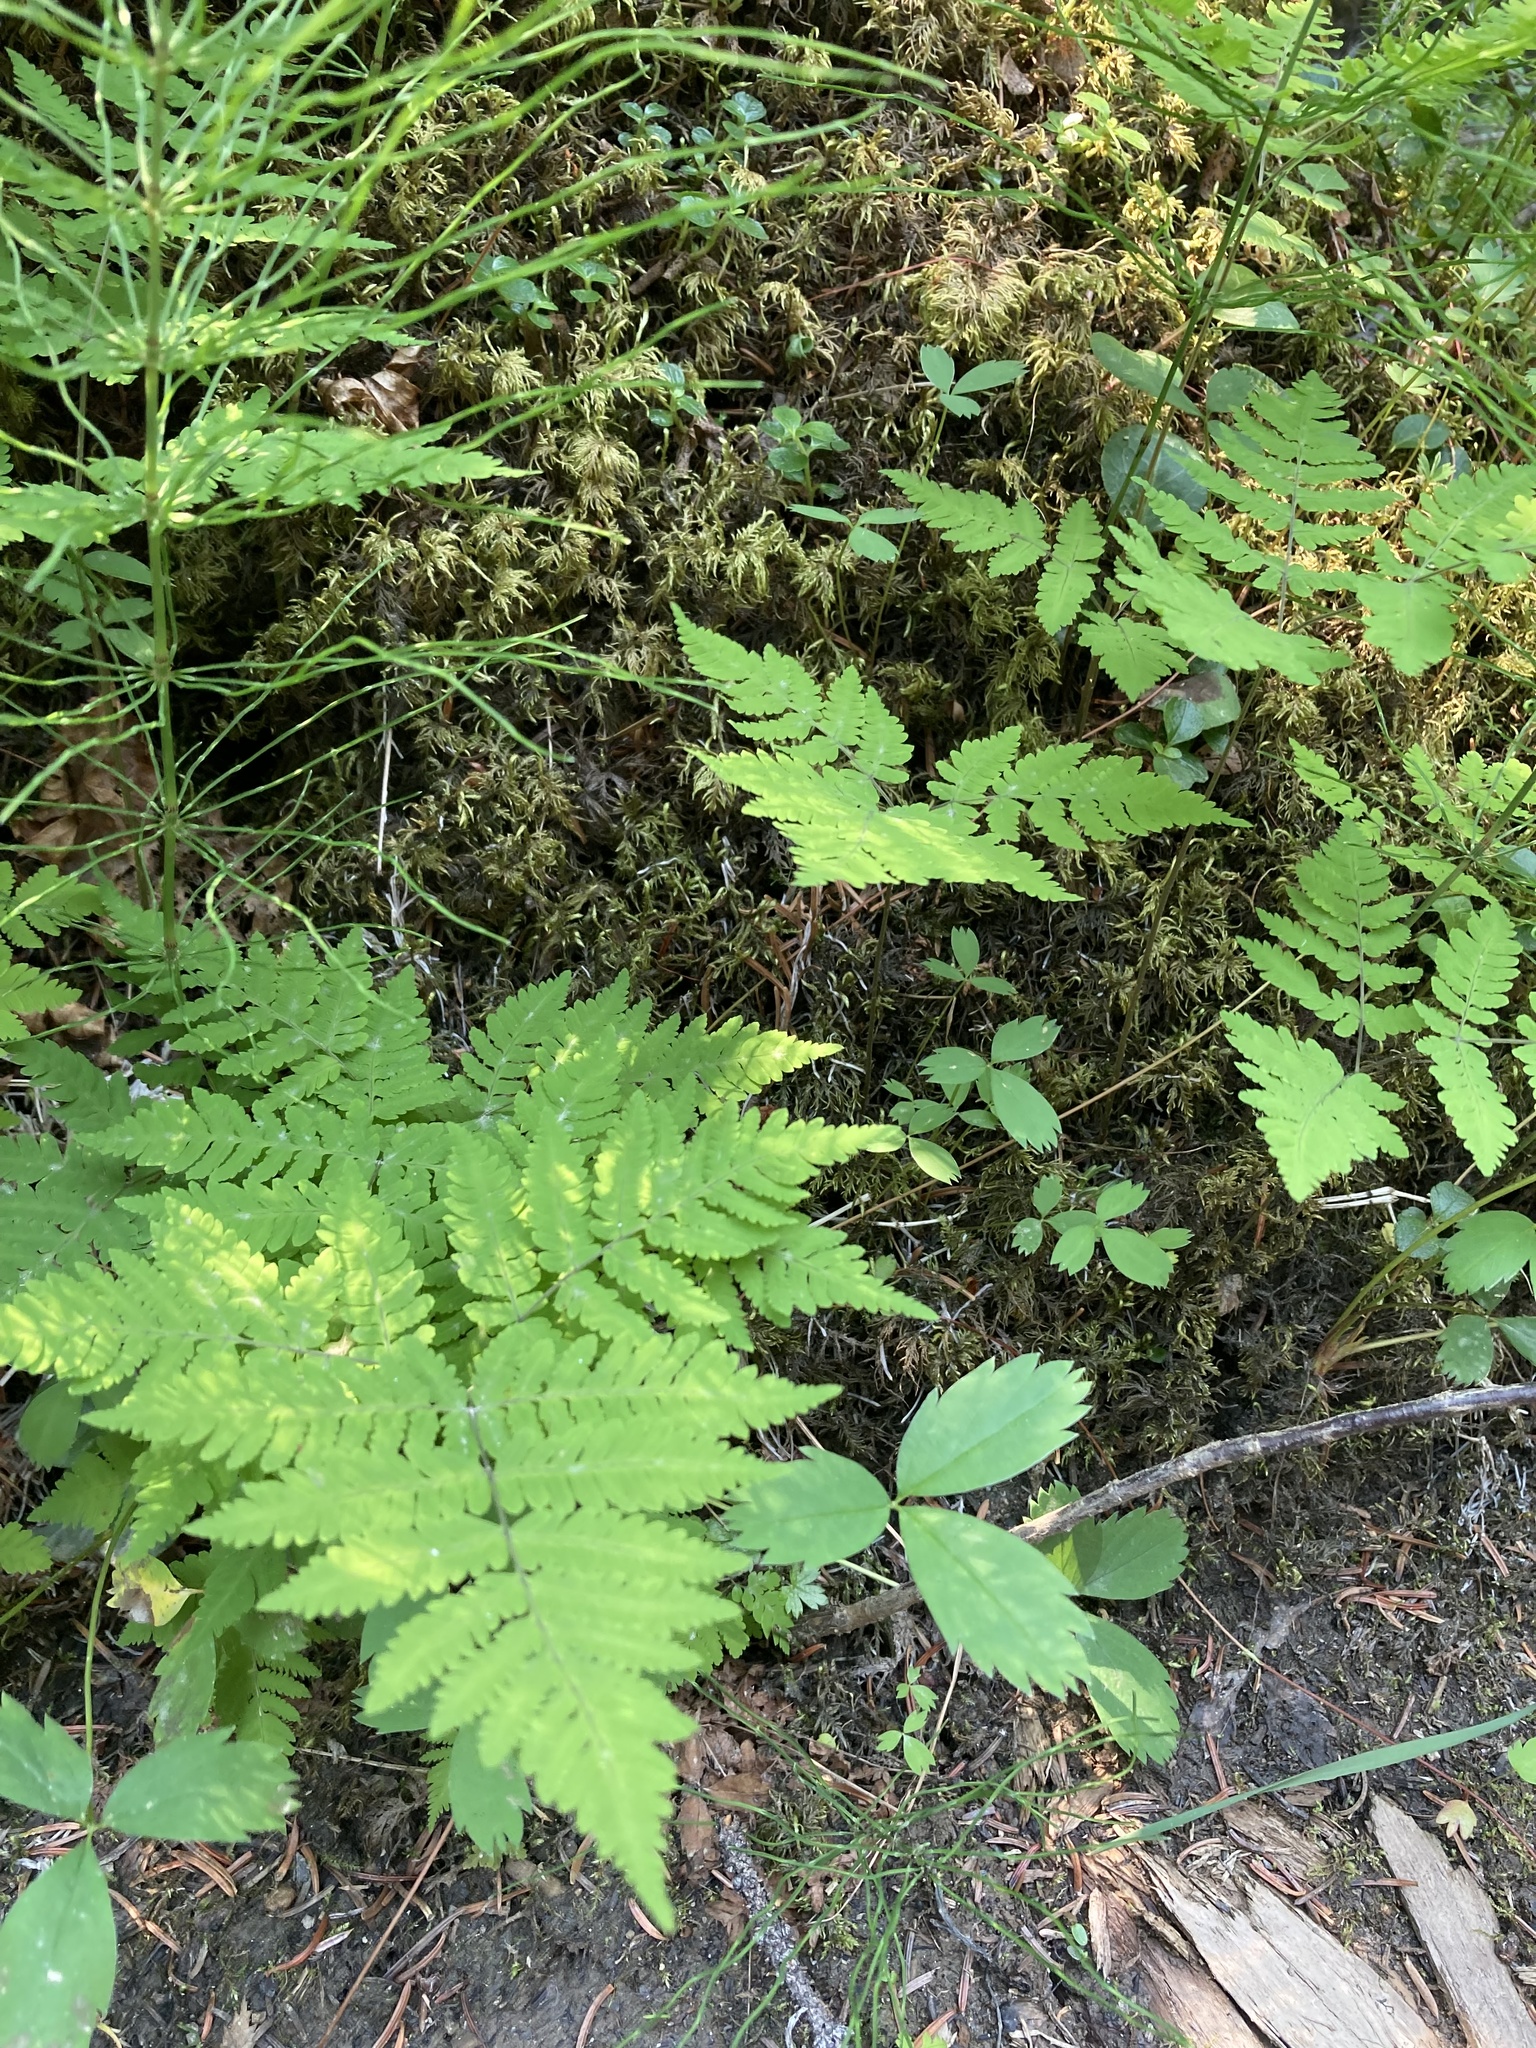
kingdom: Plantae
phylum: Tracheophyta
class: Polypodiopsida
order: Polypodiales
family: Cystopteridaceae
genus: Gymnocarpium
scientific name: Gymnocarpium dryopteris
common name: Oak fern
